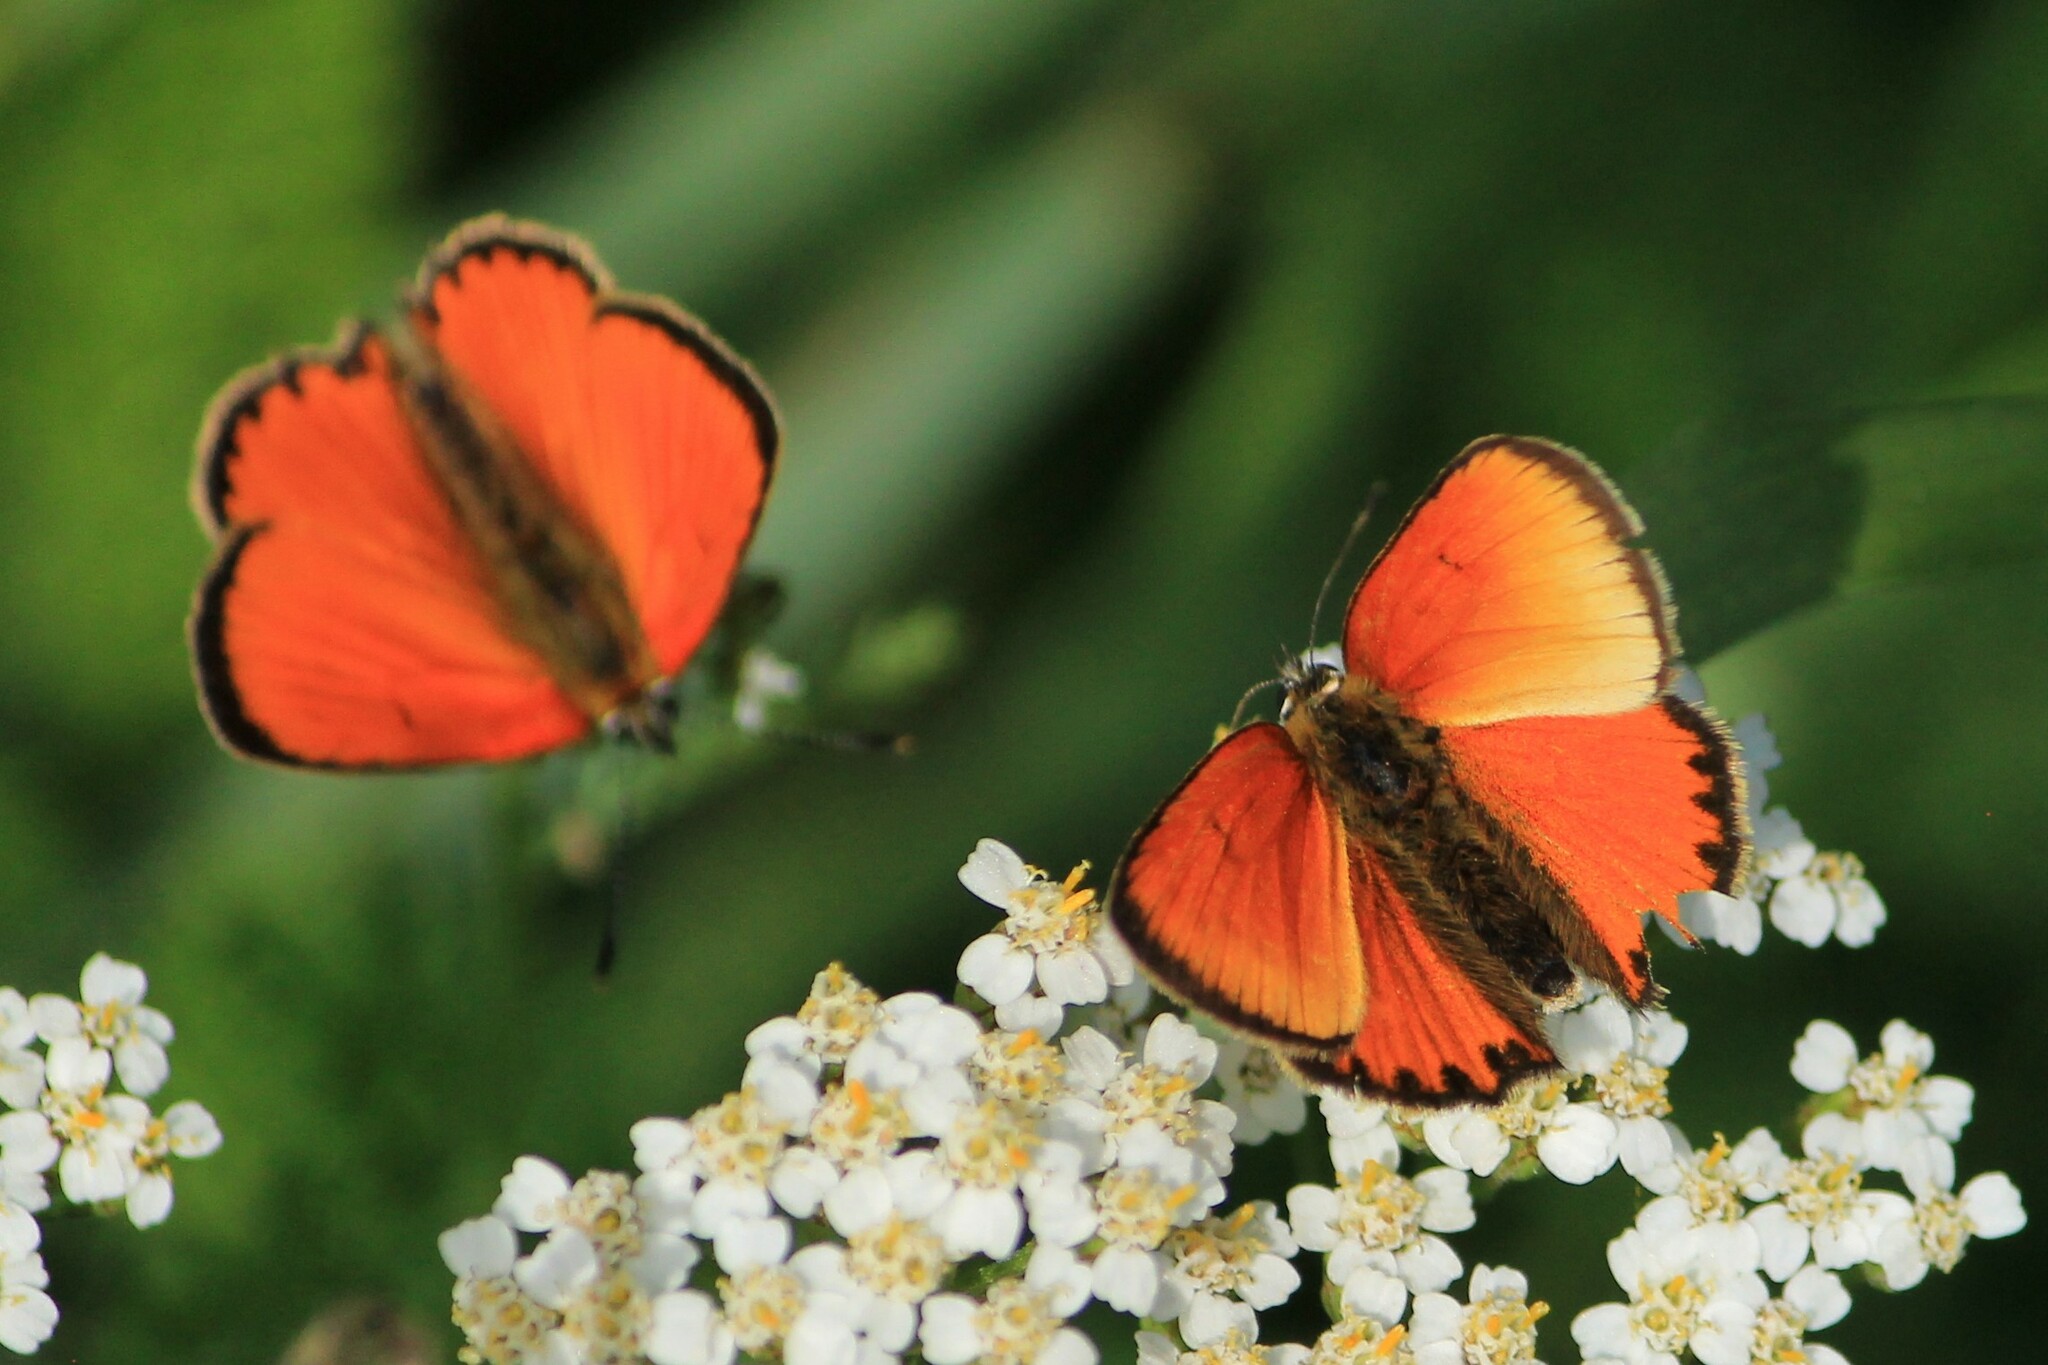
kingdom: Animalia
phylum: Arthropoda
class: Insecta
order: Lepidoptera
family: Lycaenidae
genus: Lycaena
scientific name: Lycaena virgaureae
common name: Scarce copper
